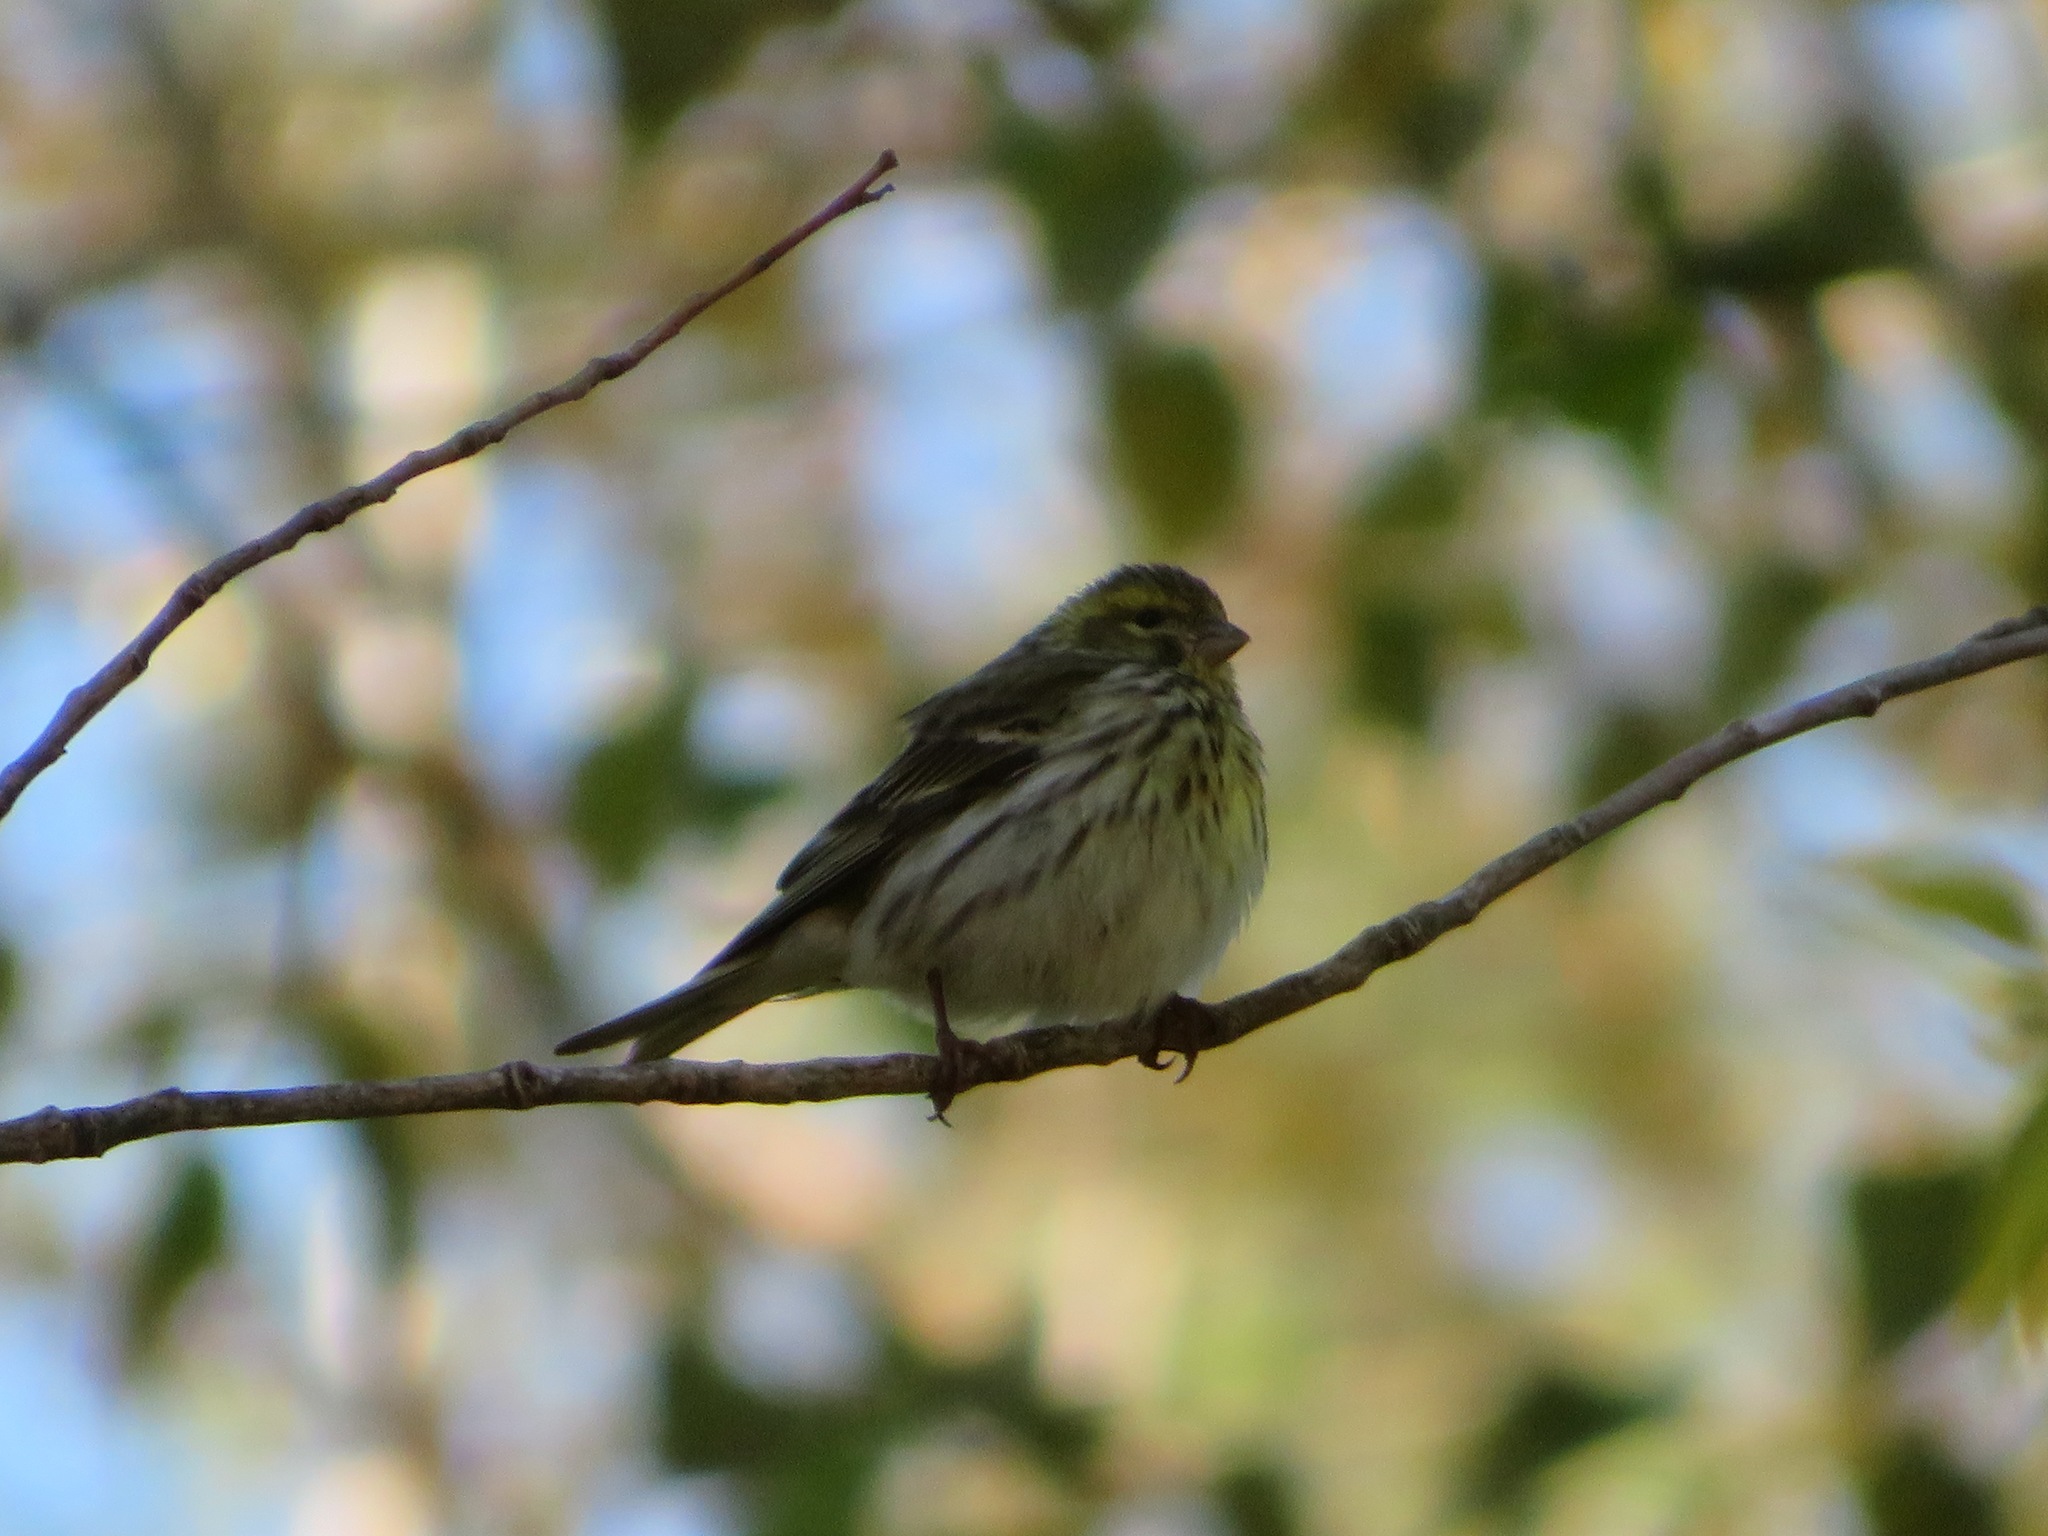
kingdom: Animalia
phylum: Chordata
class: Aves
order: Passeriformes
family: Fringillidae
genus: Serinus
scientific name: Serinus serinus
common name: European serin
